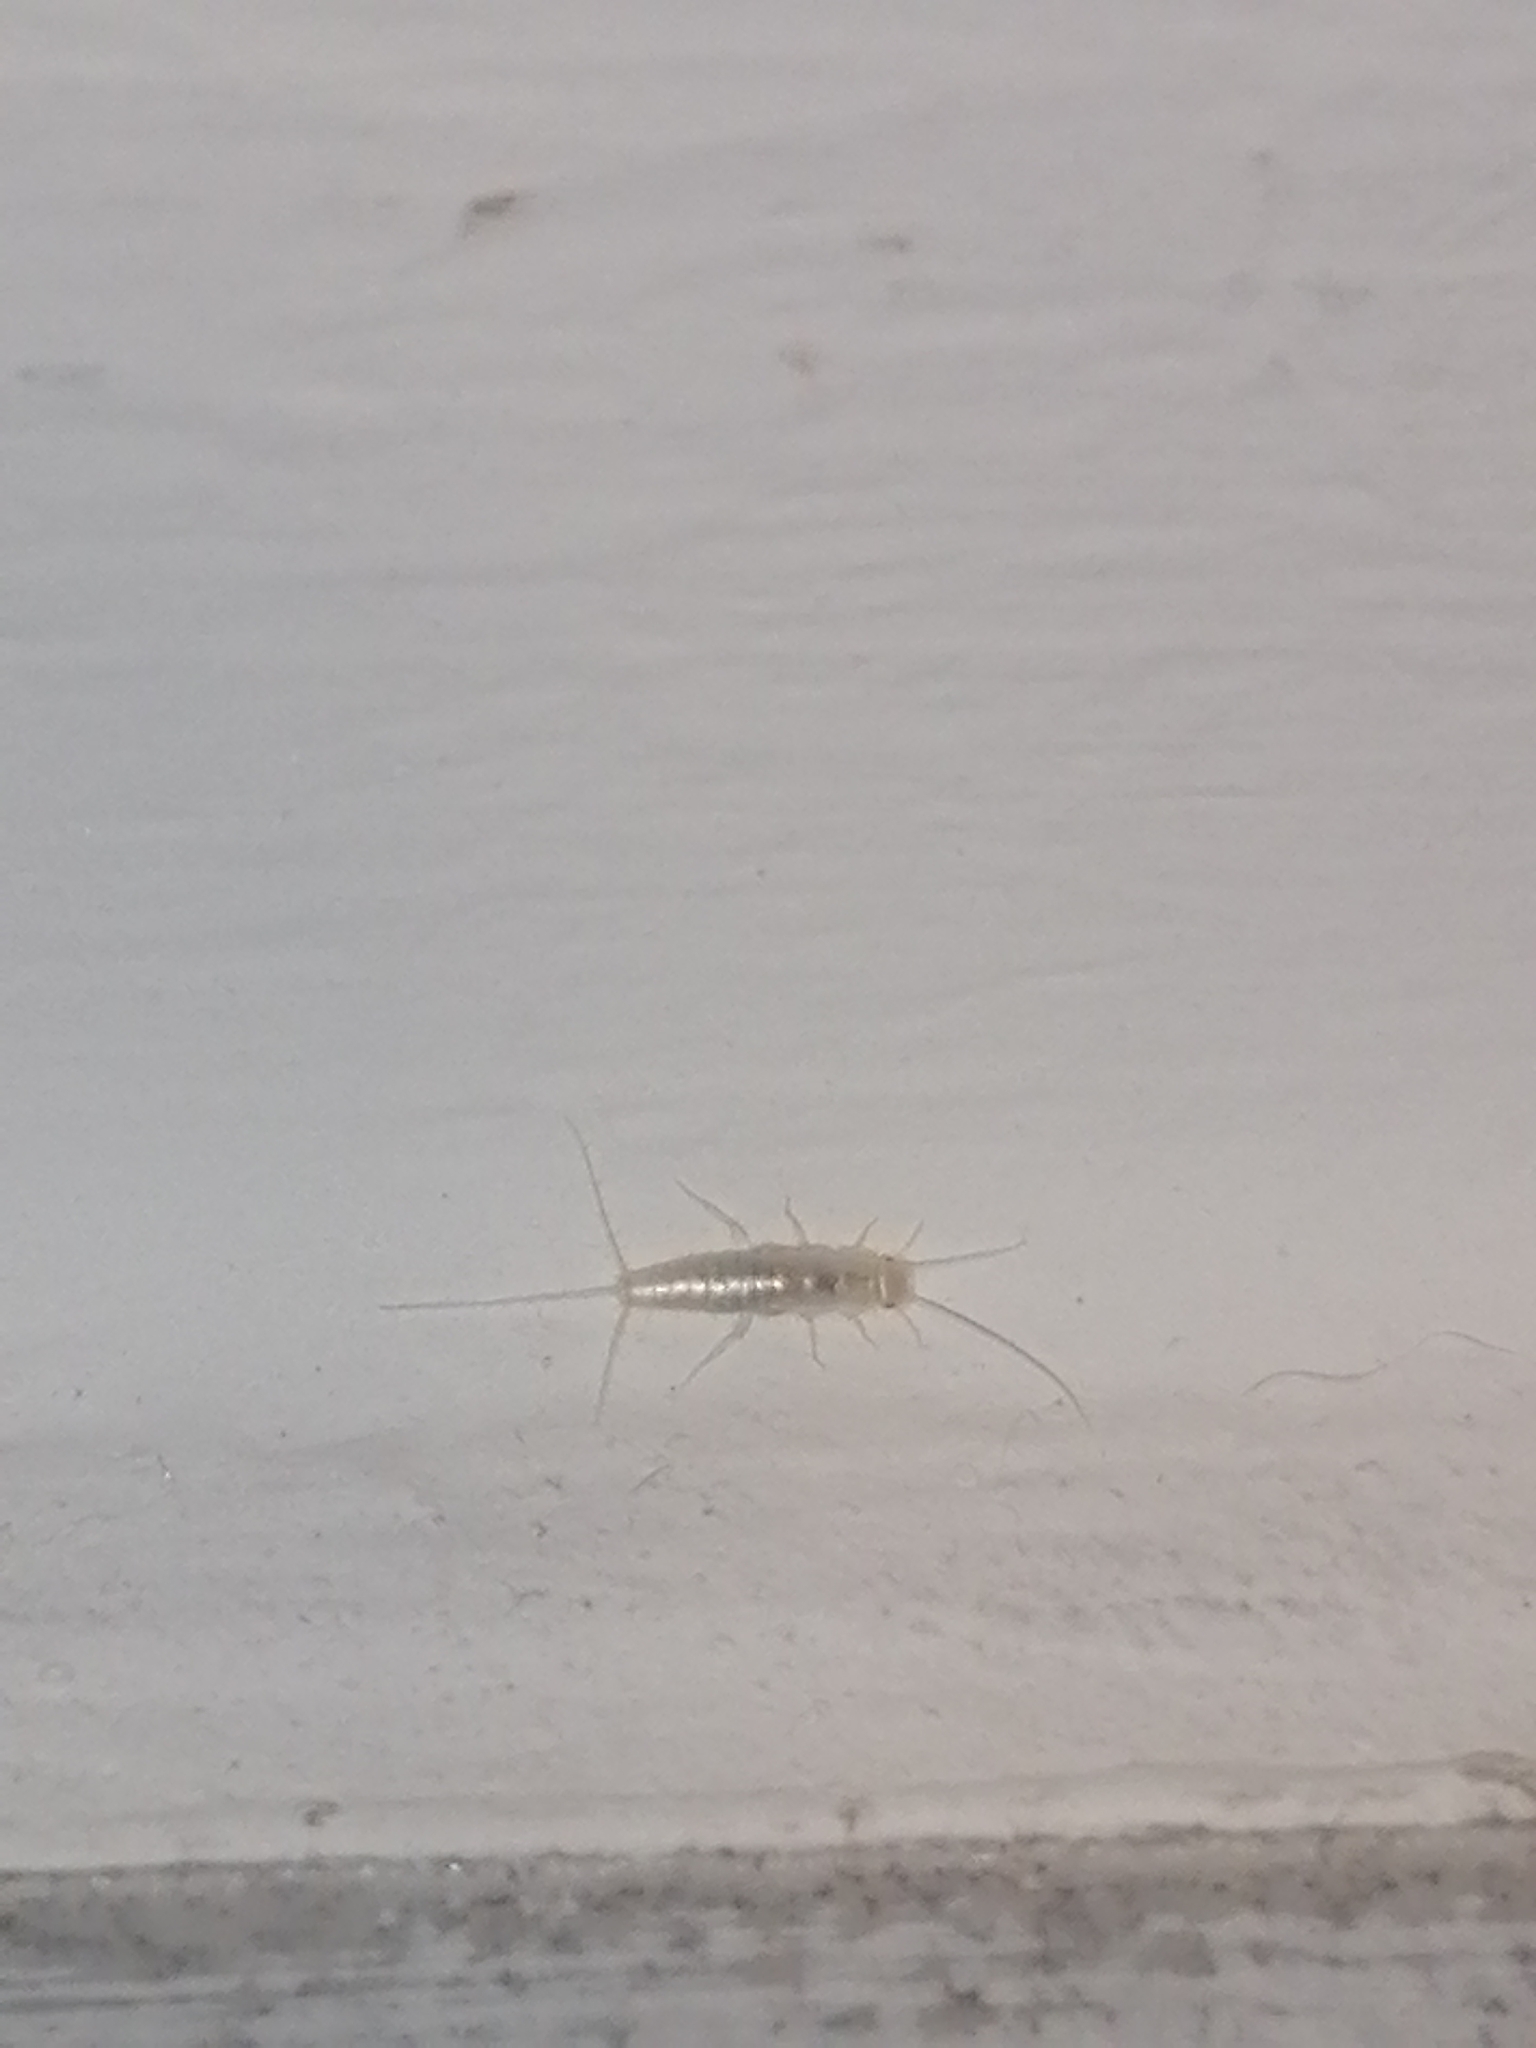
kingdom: Animalia
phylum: Arthropoda
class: Insecta
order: Zygentoma
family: Lepismatidae
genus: Ctenolepisma
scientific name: Ctenolepisma calvum
